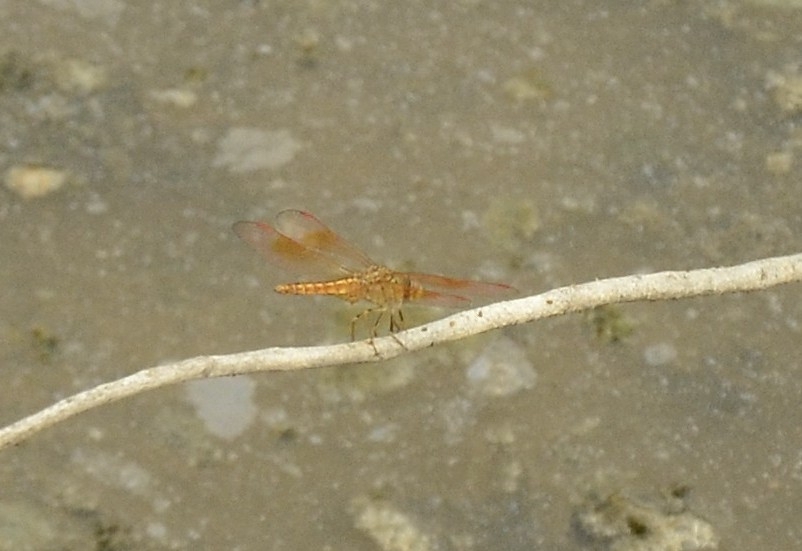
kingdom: Animalia
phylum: Arthropoda
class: Insecta
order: Odonata
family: Libellulidae
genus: Brachythemis
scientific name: Brachythemis contaminata
